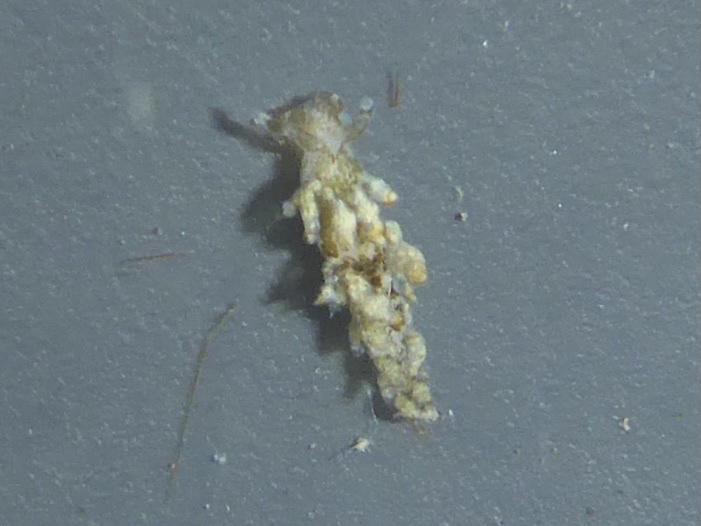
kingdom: Animalia
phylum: Mollusca
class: Gastropoda
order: Nudibranchia
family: Eubranchidae
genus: Eubranchus
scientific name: Eubranchus rustyus
